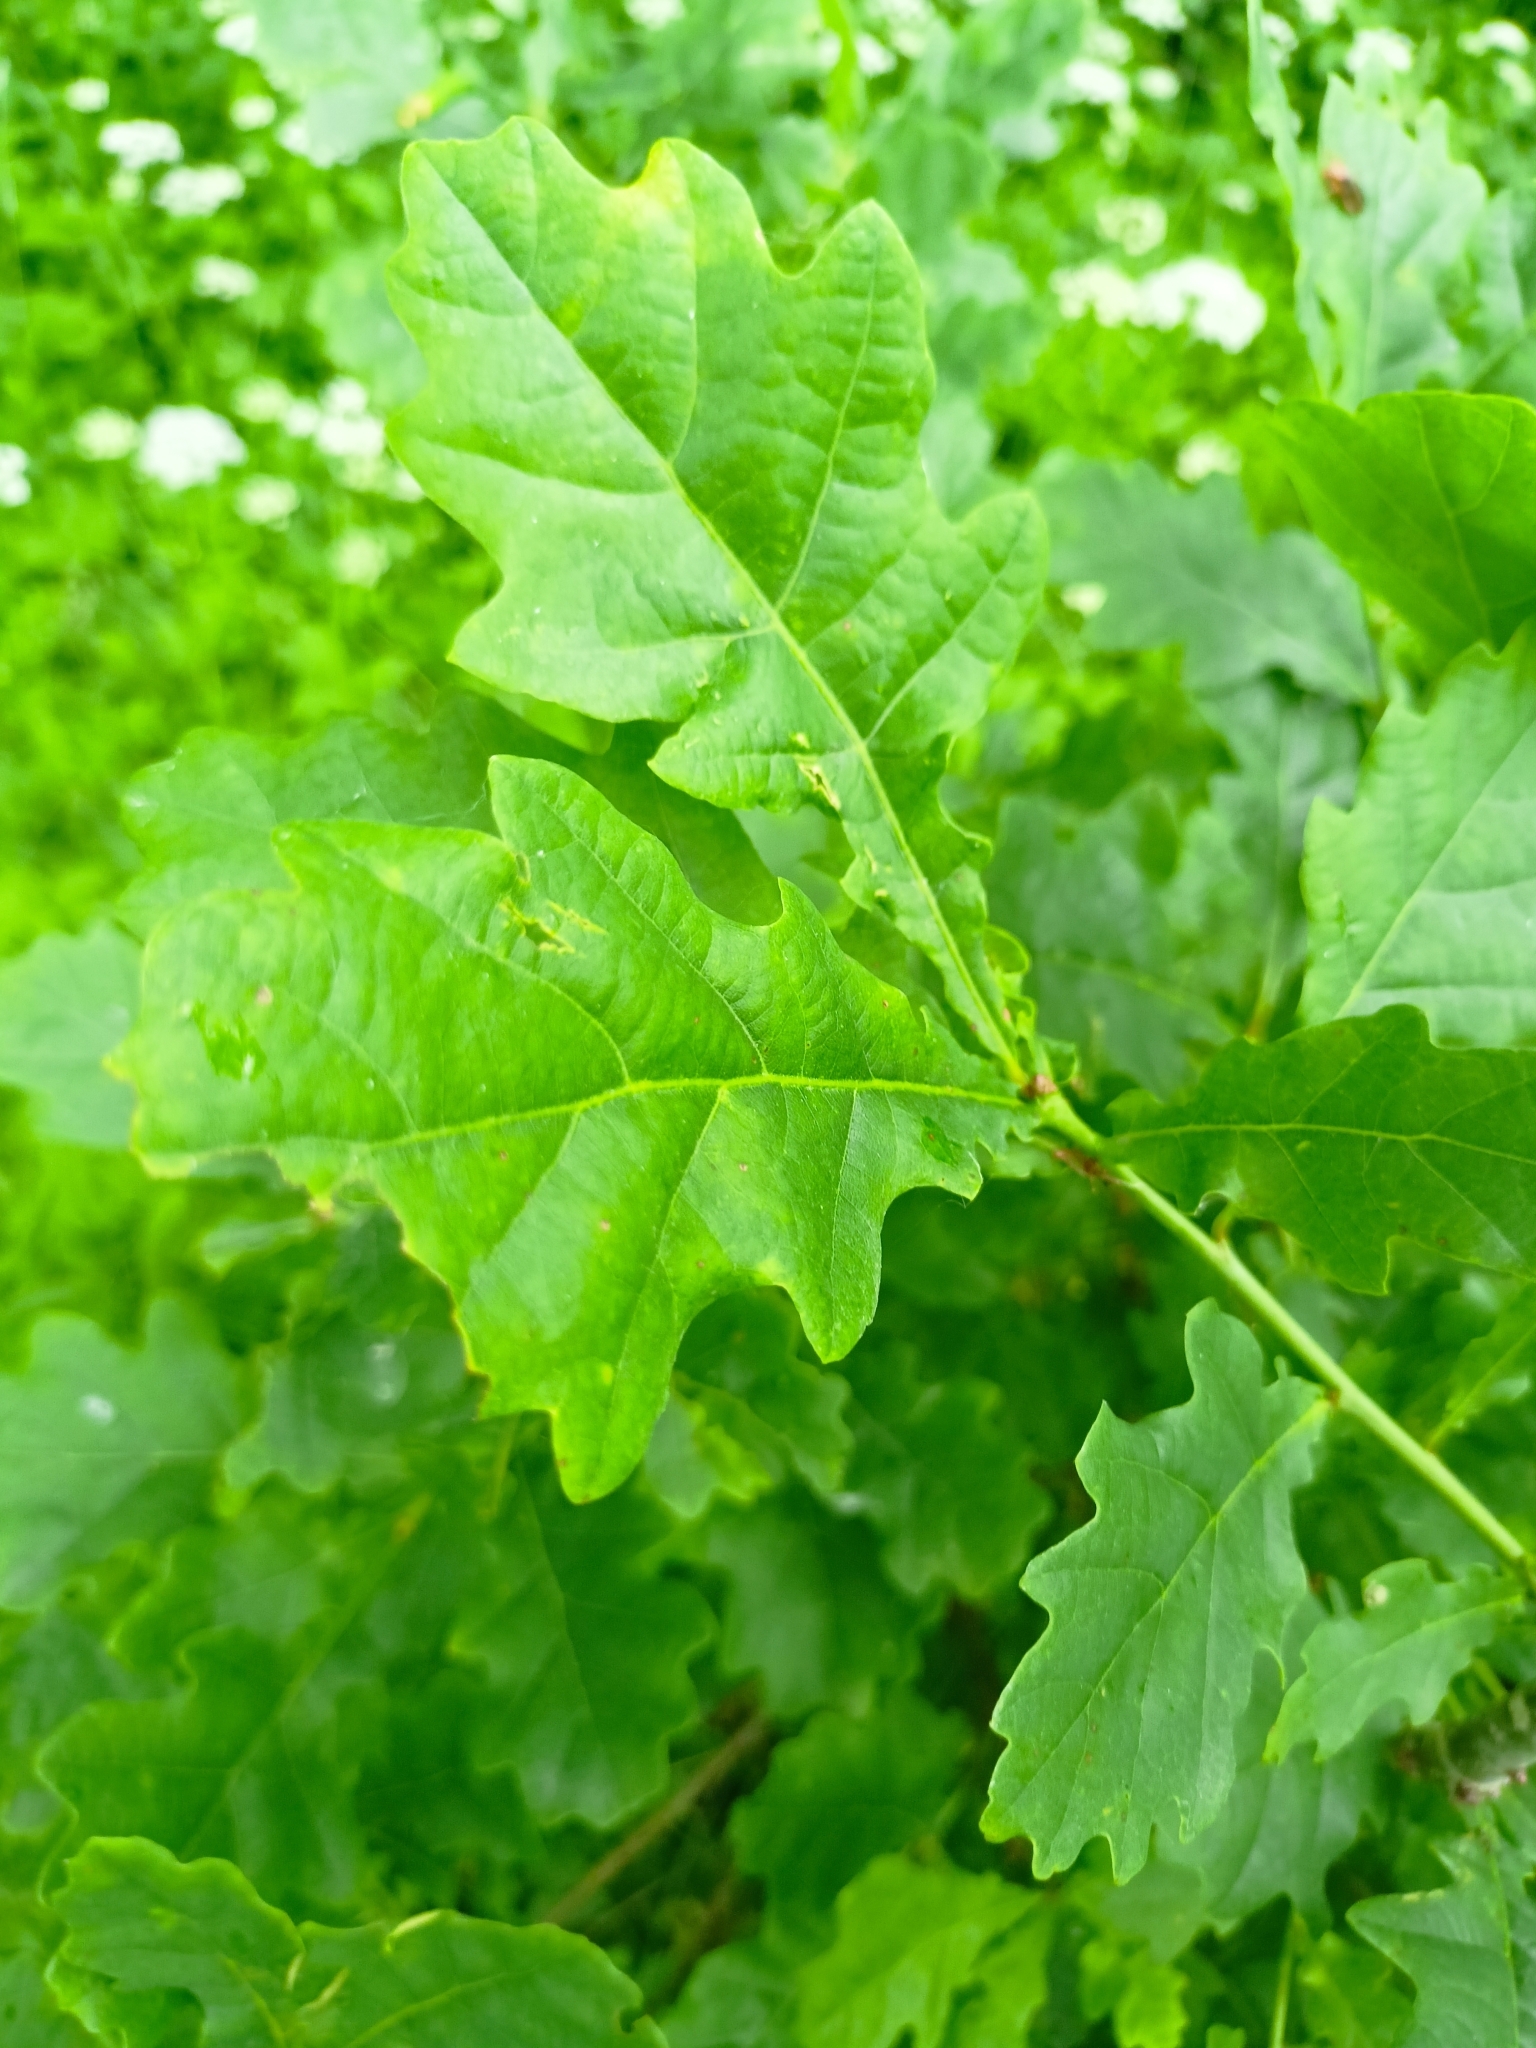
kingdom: Plantae
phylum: Tracheophyta
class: Magnoliopsida
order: Fagales
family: Fagaceae
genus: Quercus
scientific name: Quercus robur
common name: Pedunculate oak
